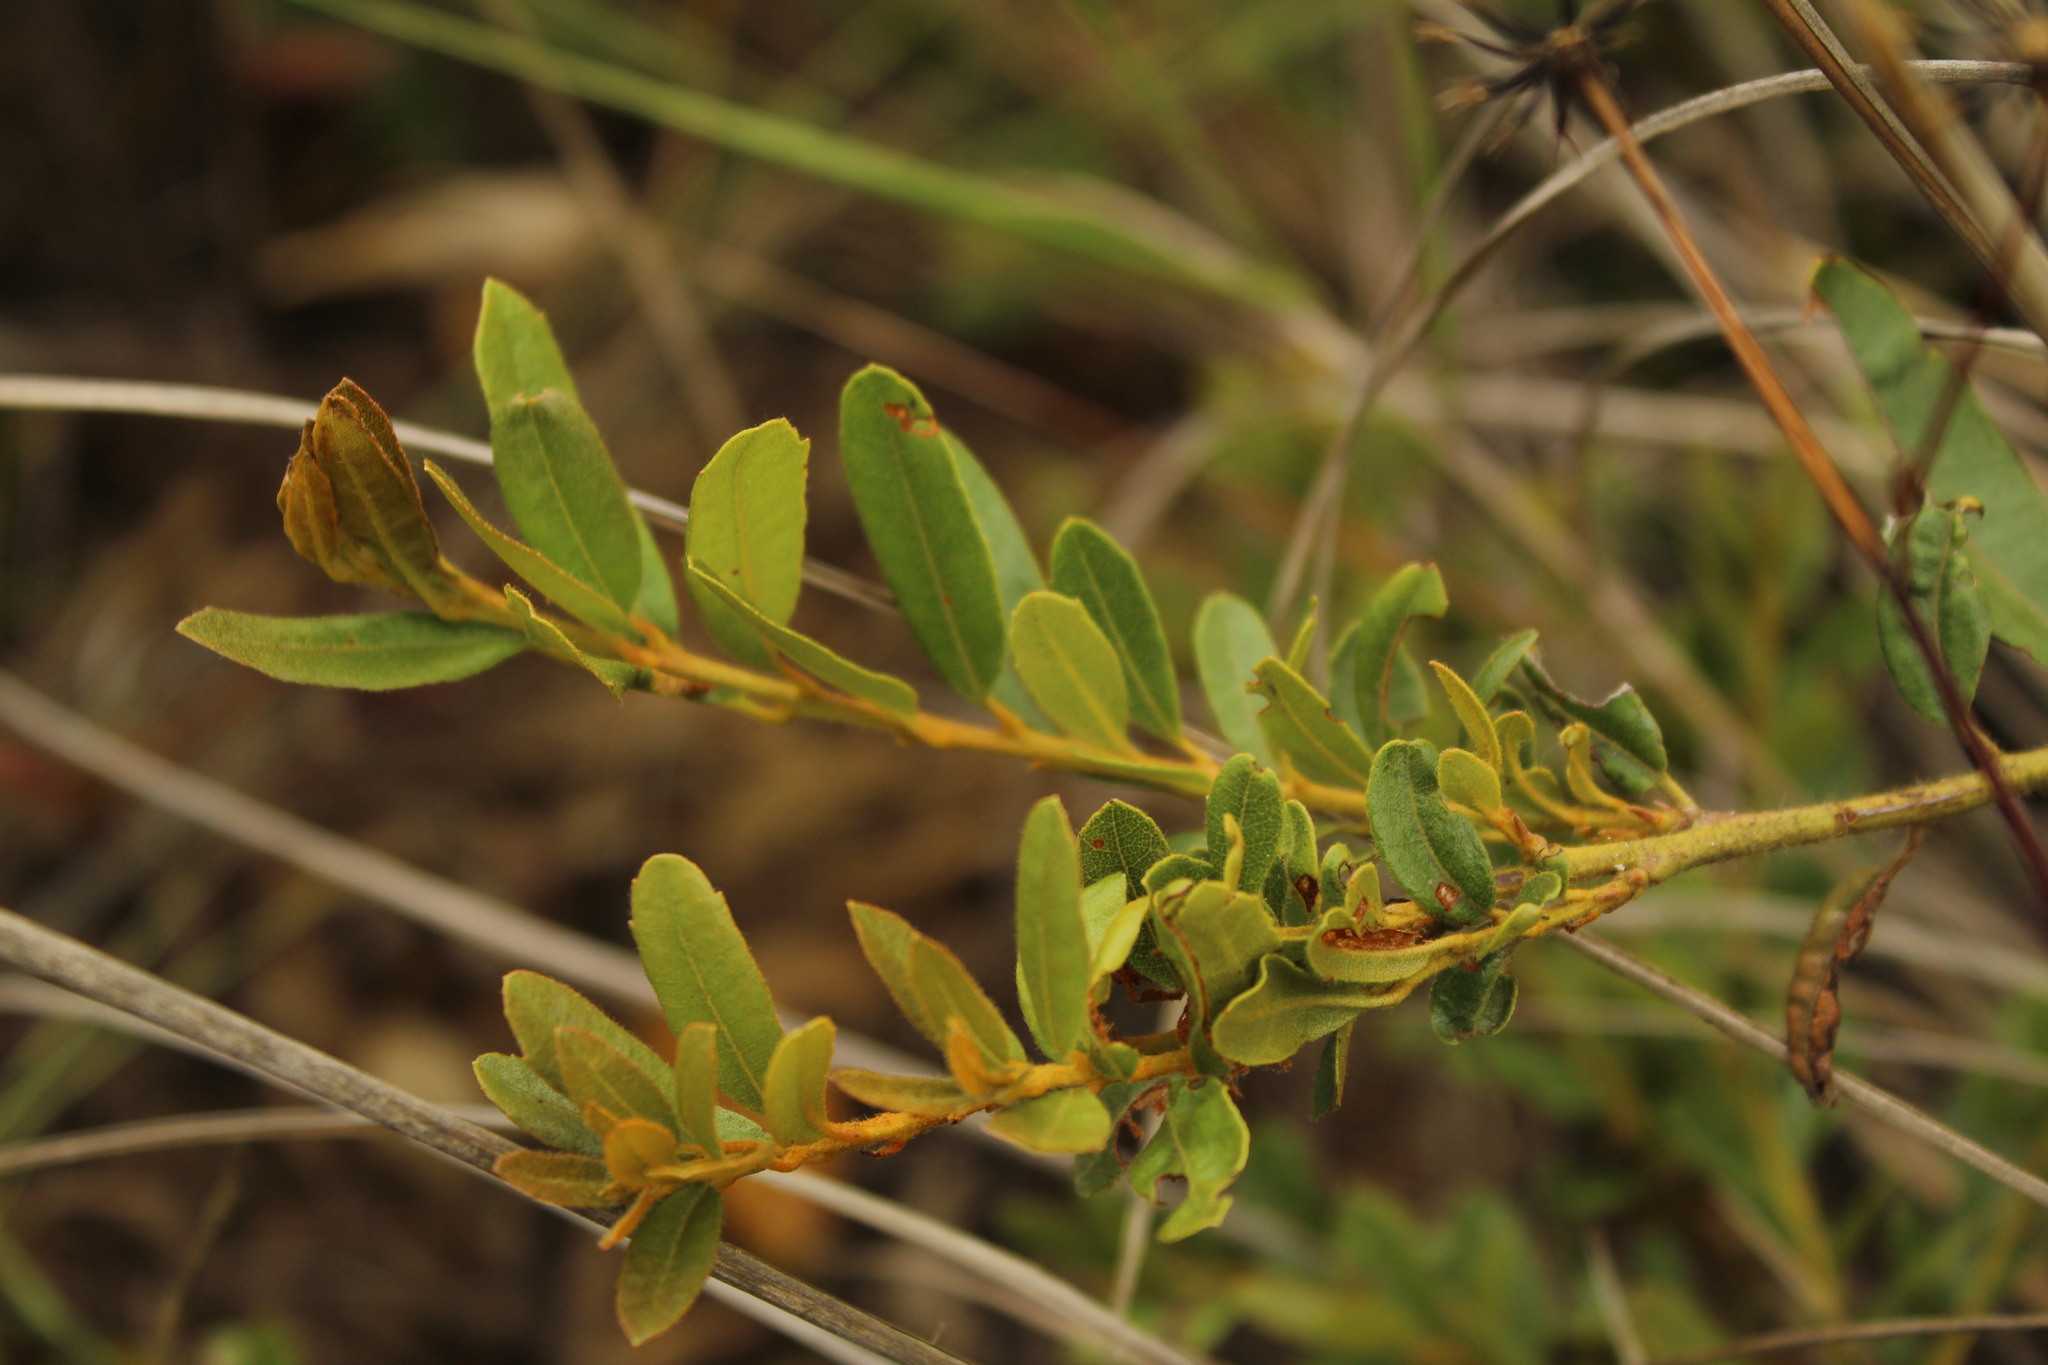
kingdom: Plantae
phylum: Tracheophyta
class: Magnoliopsida
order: Fagales
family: Myricaceae
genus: Morella
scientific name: Morella parvifolia
